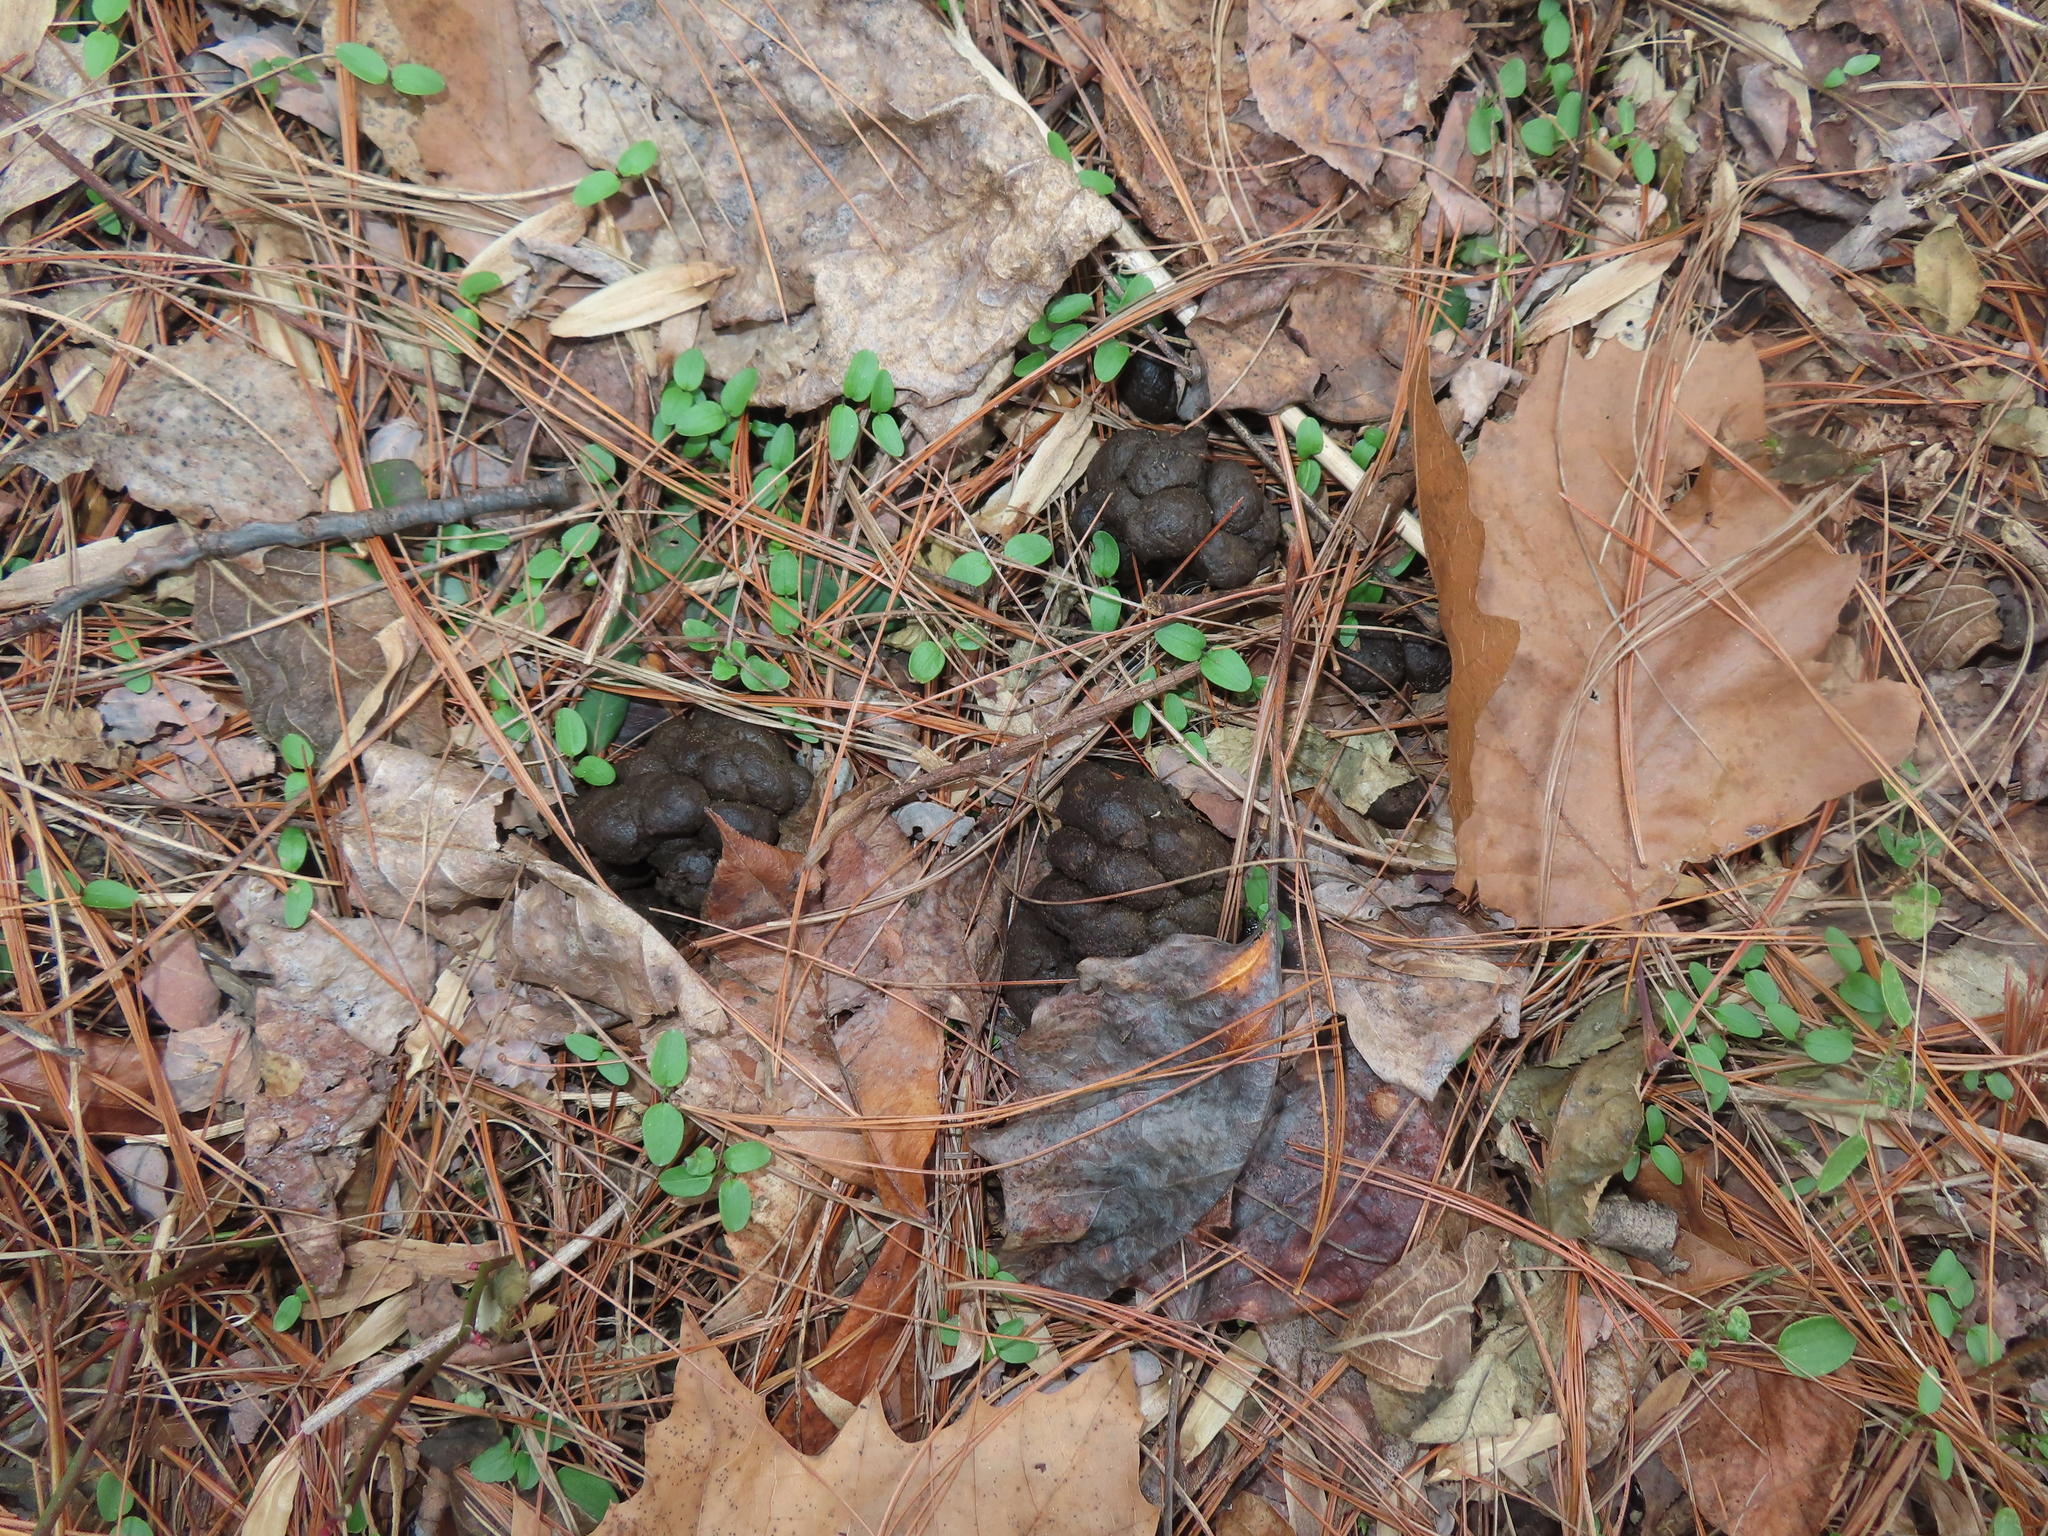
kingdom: Animalia
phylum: Chordata
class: Mammalia
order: Artiodactyla
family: Cervidae
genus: Odocoileus
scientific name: Odocoileus virginianus
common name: White-tailed deer
